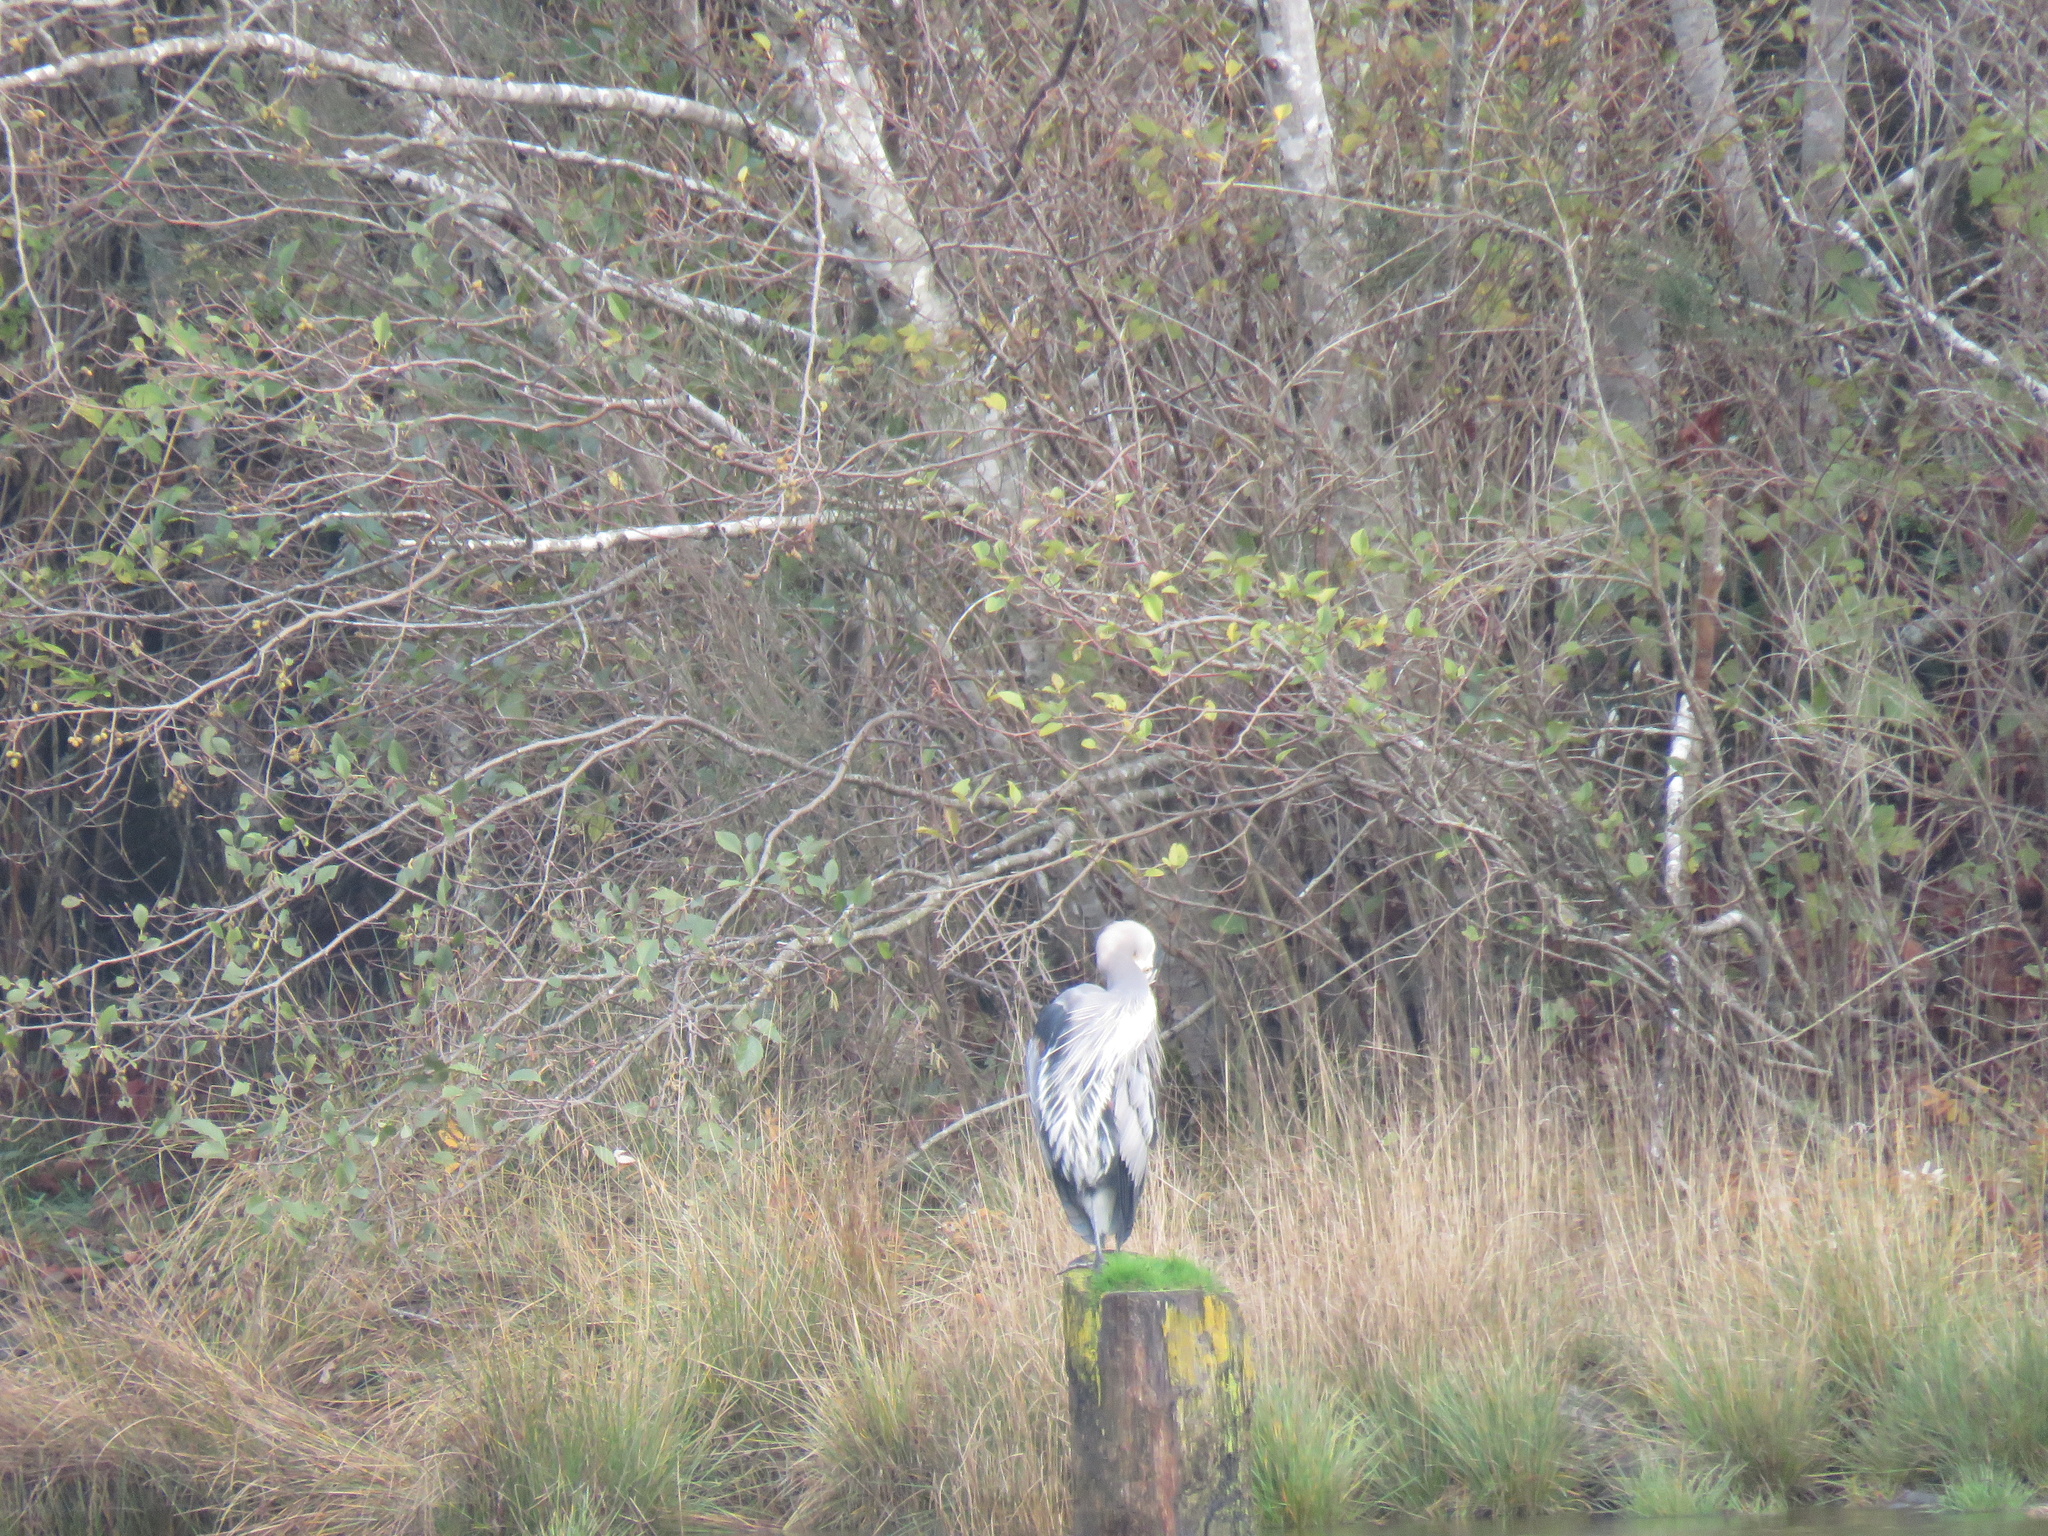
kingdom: Animalia
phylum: Chordata
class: Aves
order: Pelecaniformes
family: Ardeidae
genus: Ardea
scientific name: Ardea herodias
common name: Great blue heron
